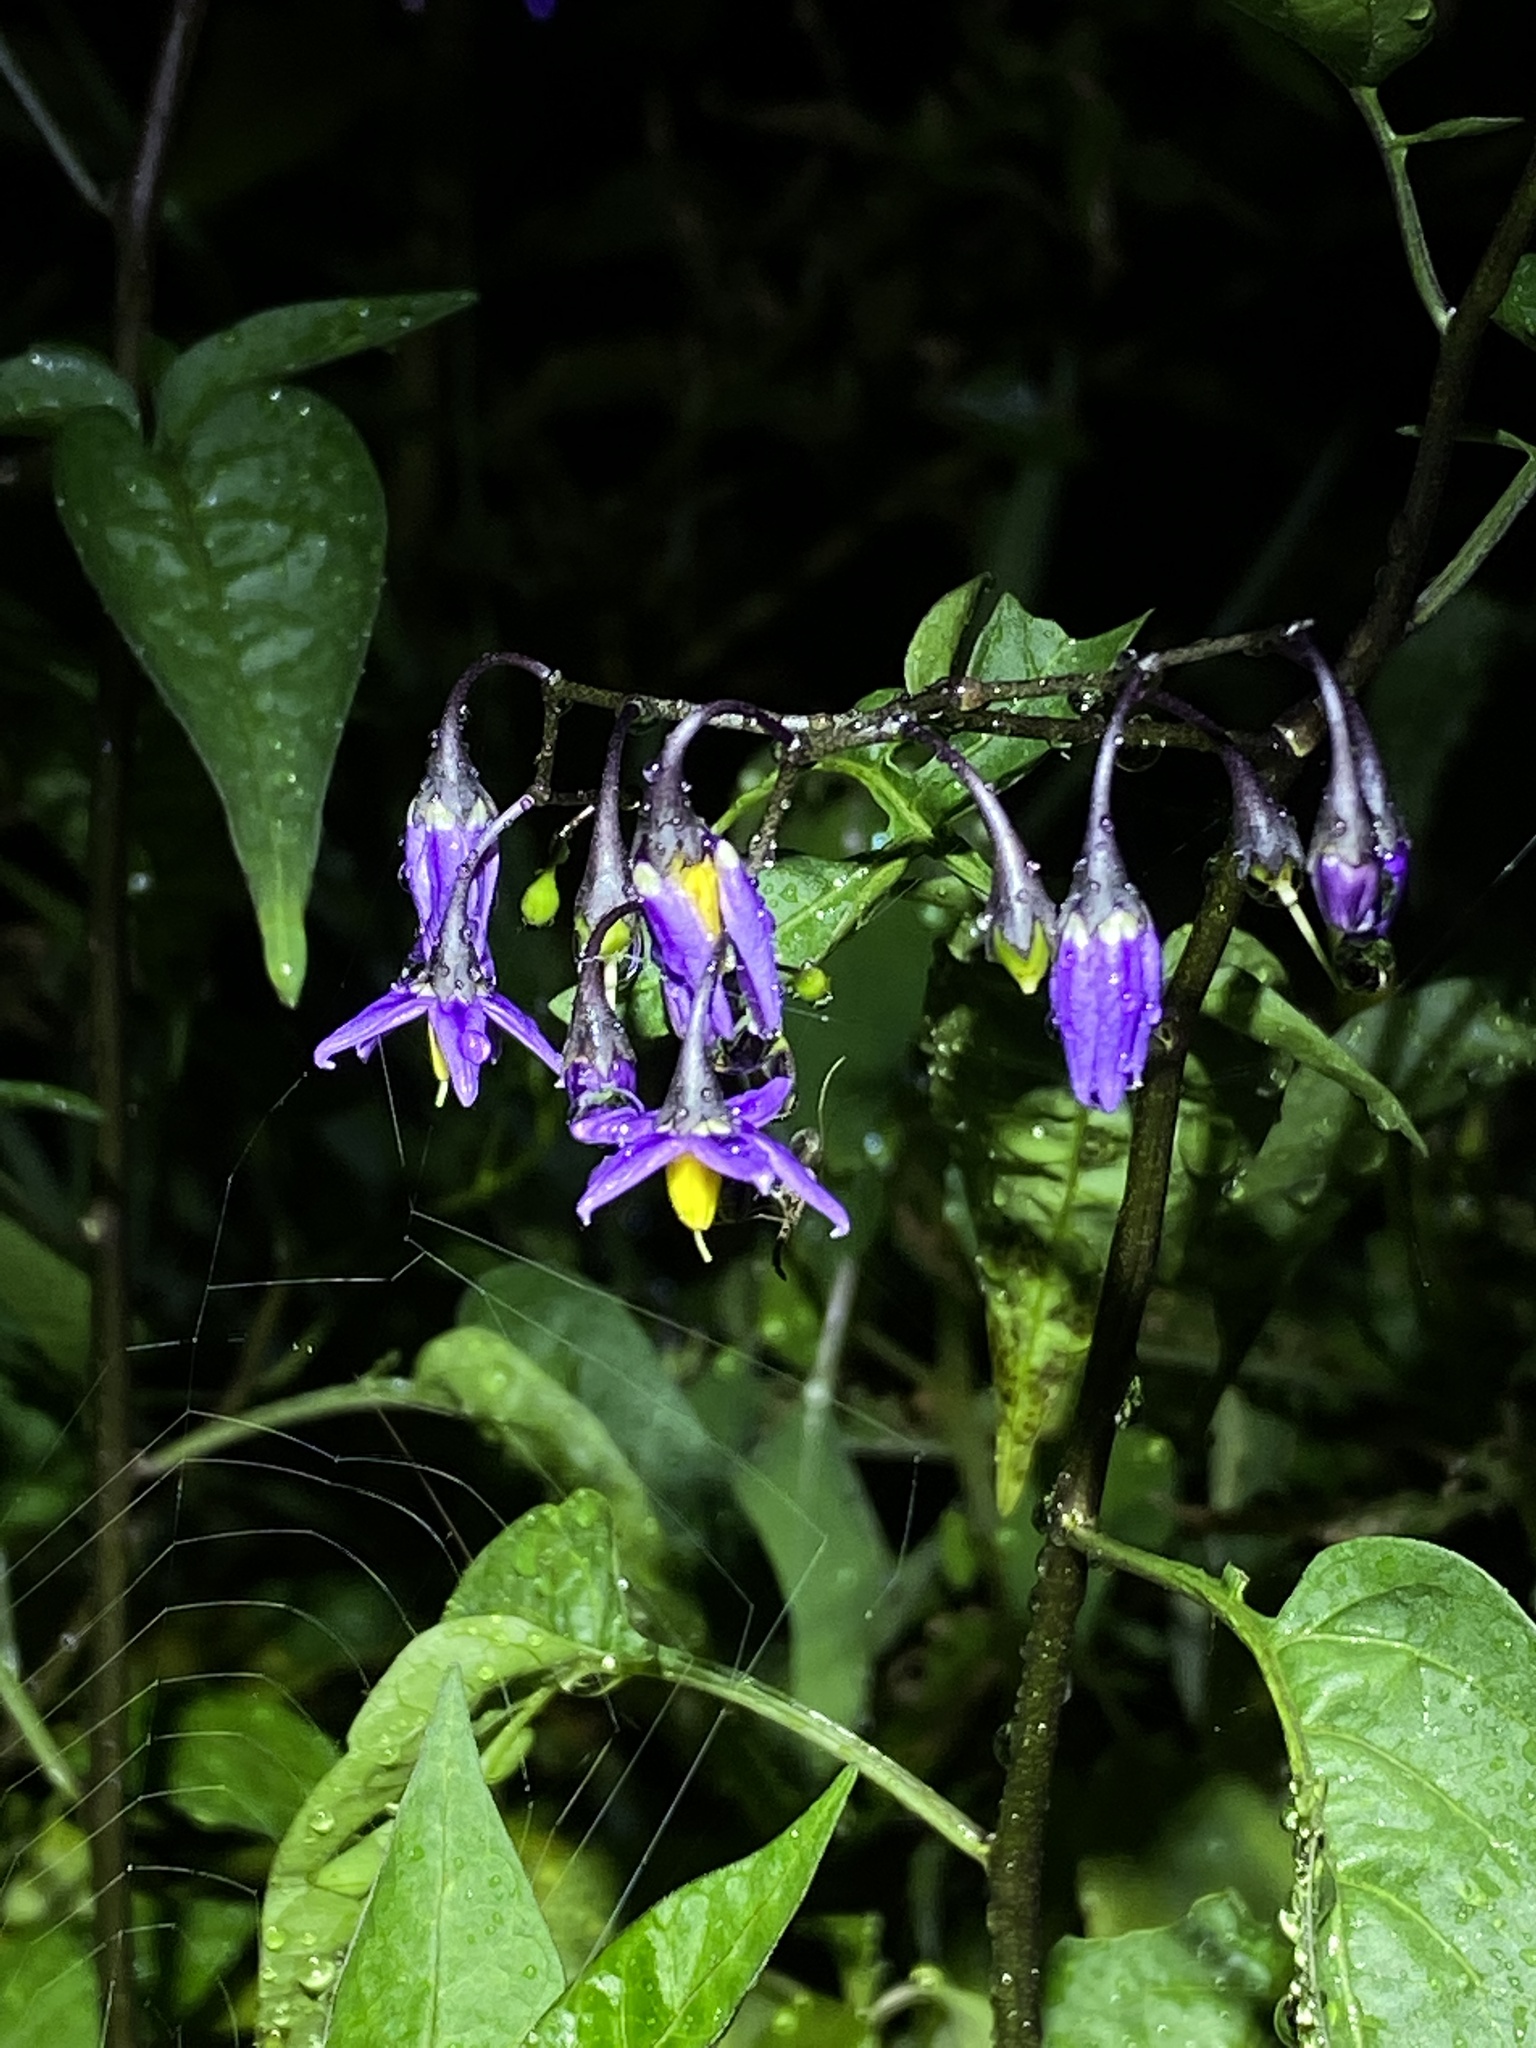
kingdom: Plantae
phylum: Tracheophyta
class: Magnoliopsida
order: Solanales
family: Solanaceae
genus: Solanum
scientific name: Solanum dulcamara
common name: Climbing nightshade
